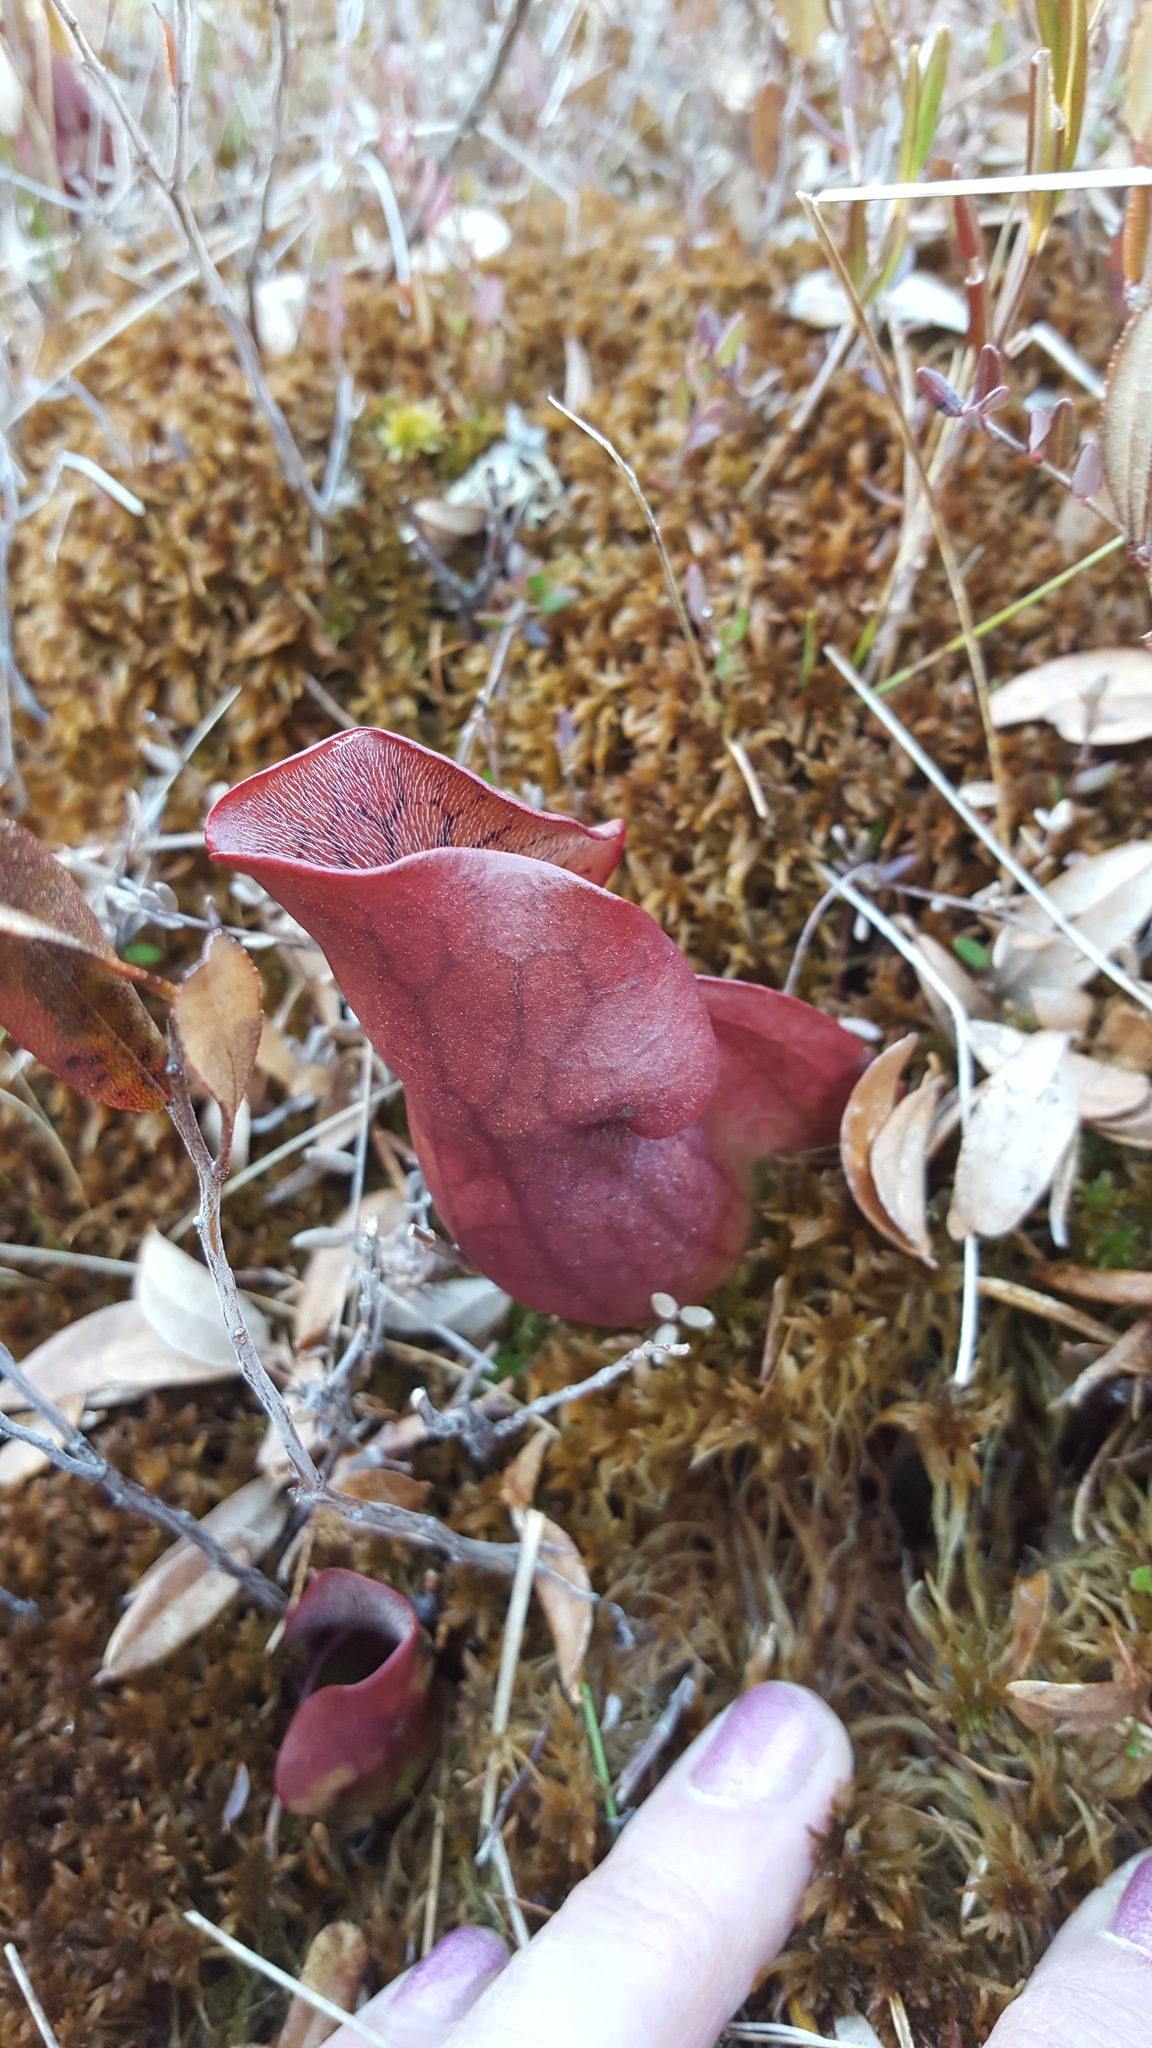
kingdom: Plantae
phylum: Tracheophyta
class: Magnoliopsida
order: Ericales
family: Sarraceniaceae
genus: Sarracenia
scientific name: Sarracenia purpurea
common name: Pitcherplant
